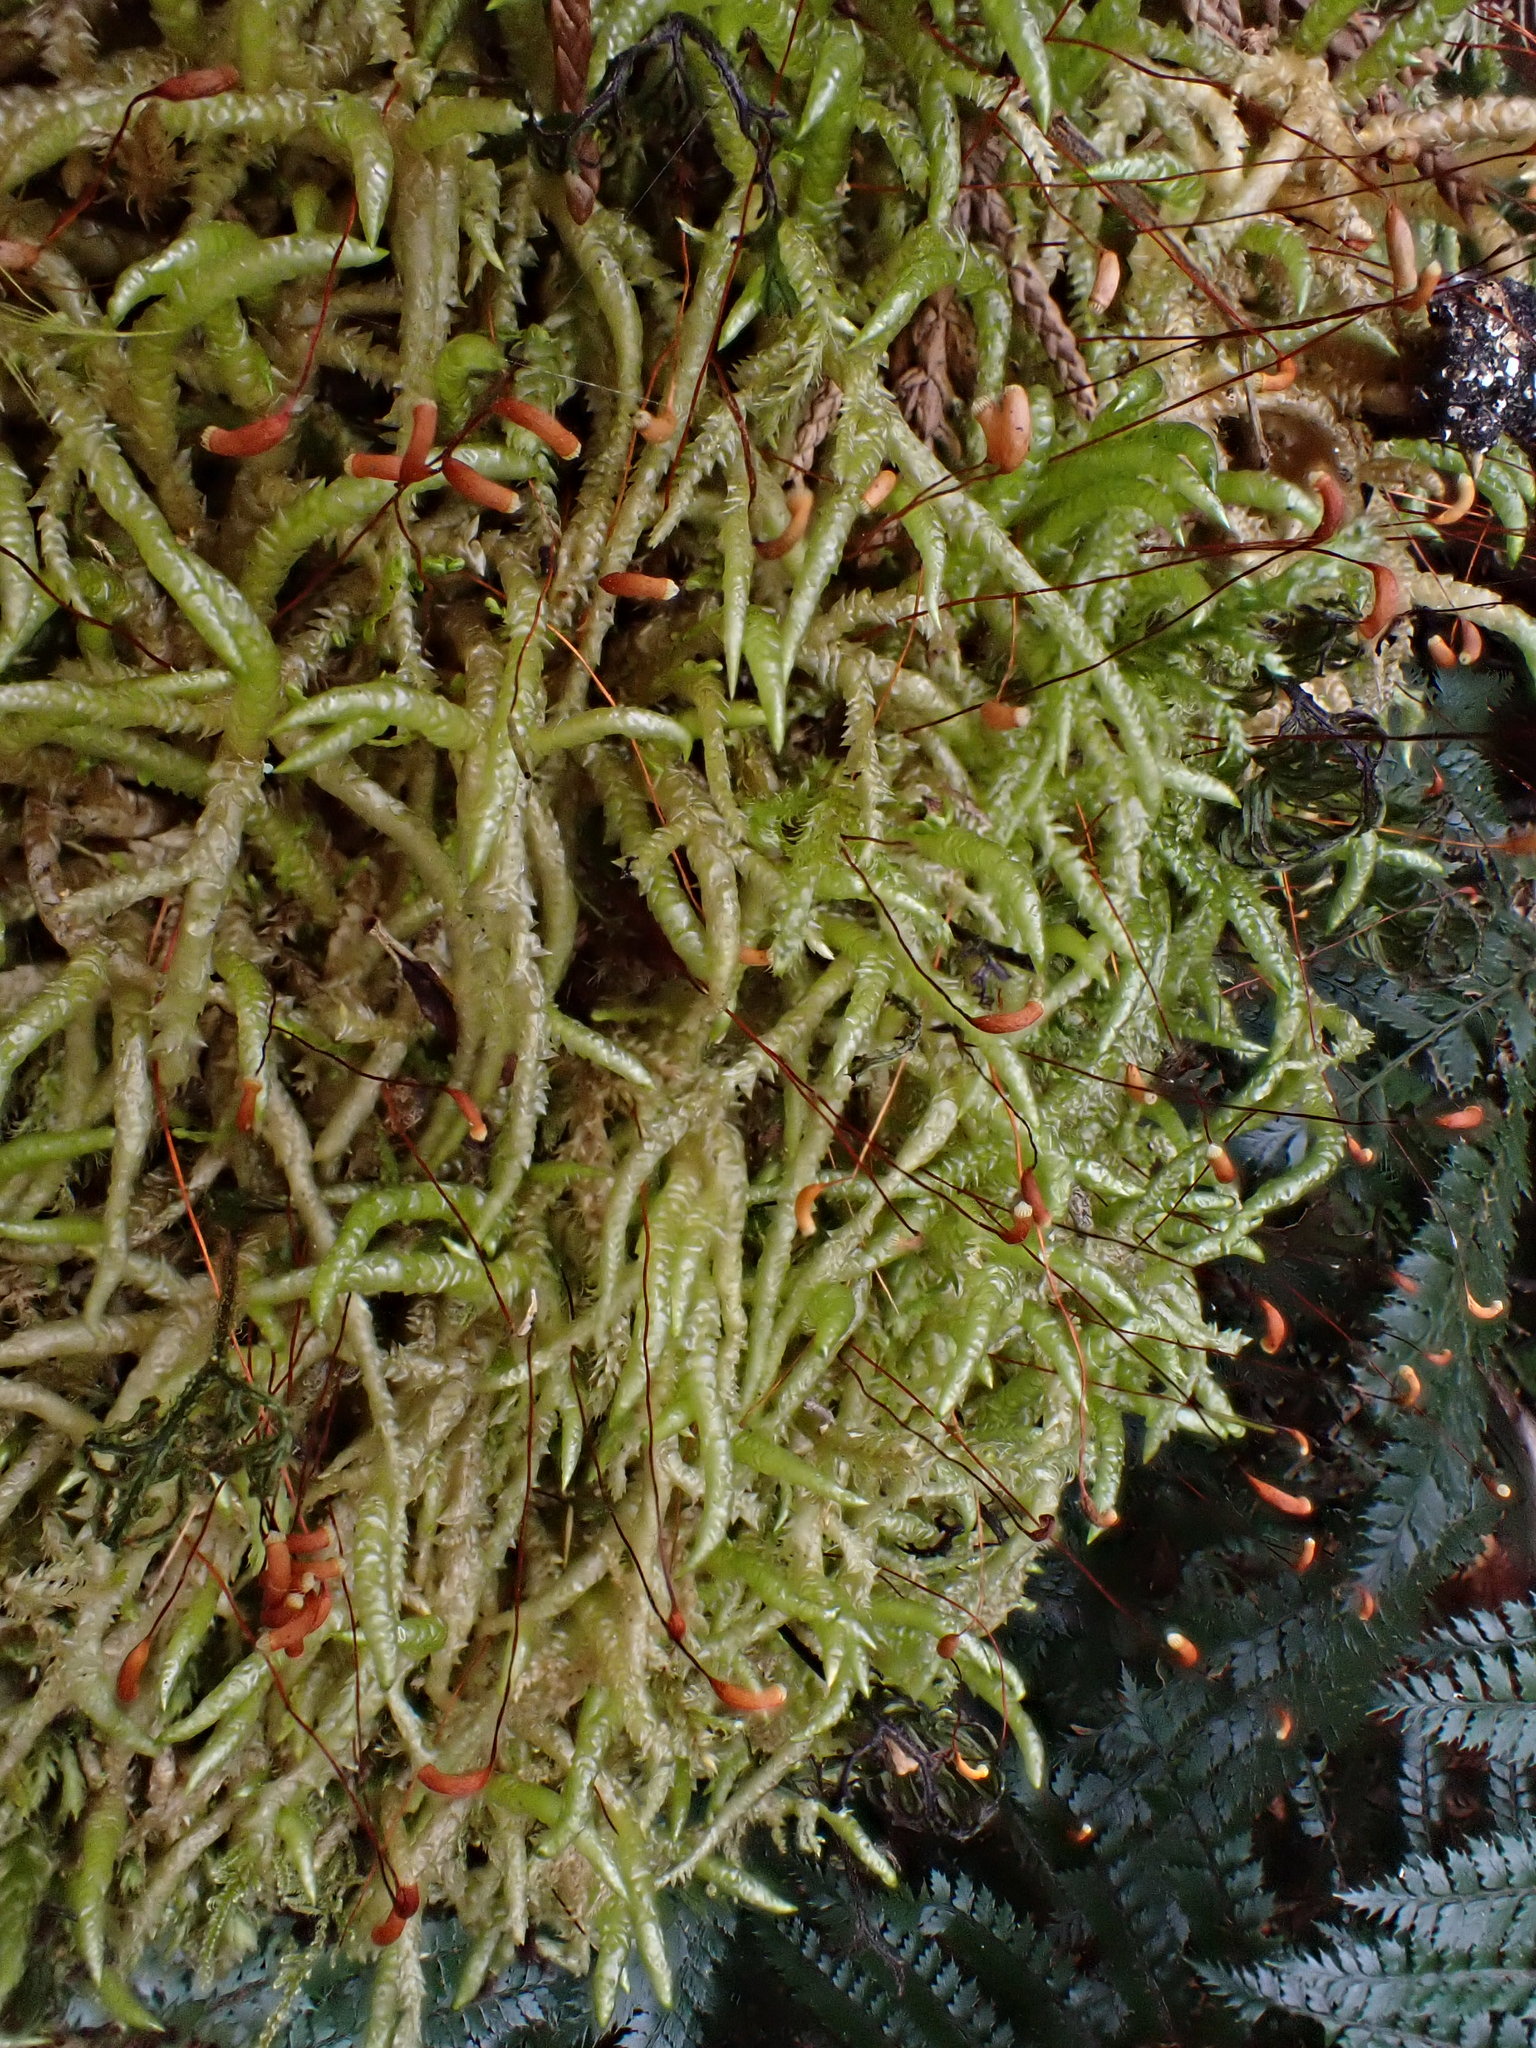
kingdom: Plantae
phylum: Bryophyta
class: Bryopsida
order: Hypnales
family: Acrocladiaceae
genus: Acrocladium
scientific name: Acrocladium chlamydophyllum
